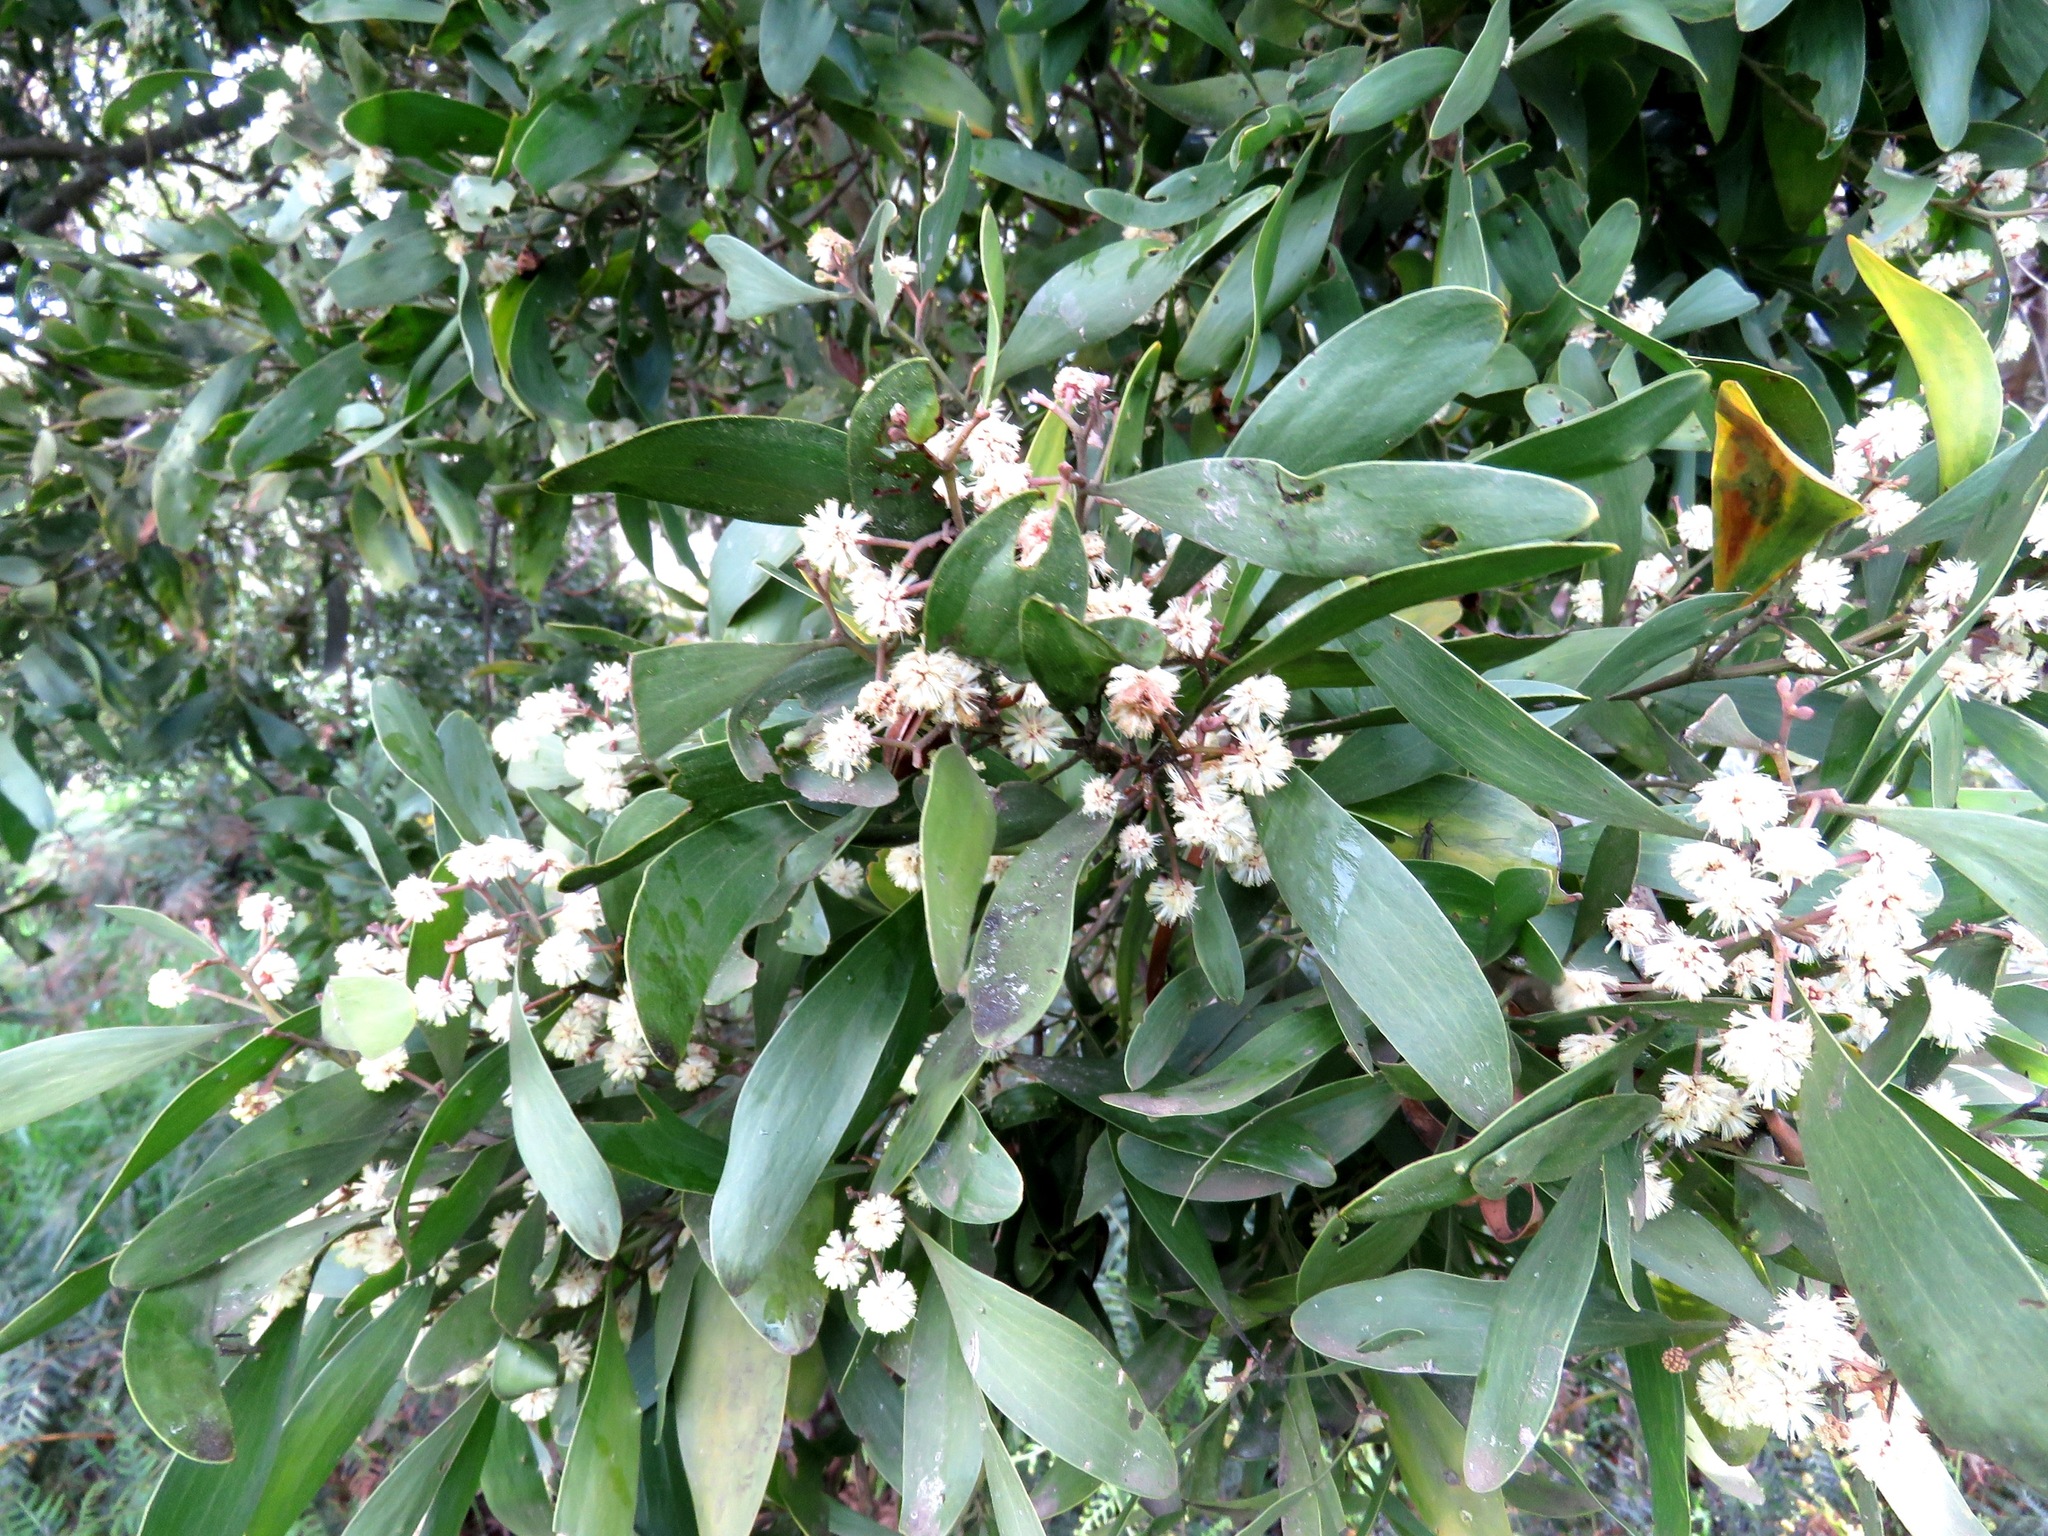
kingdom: Plantae
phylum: Tracheophyta
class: Magnoliopsida
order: Fabales
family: Fabaceae
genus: Acacia
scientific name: Acacia melanoxylon
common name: Blackwood
